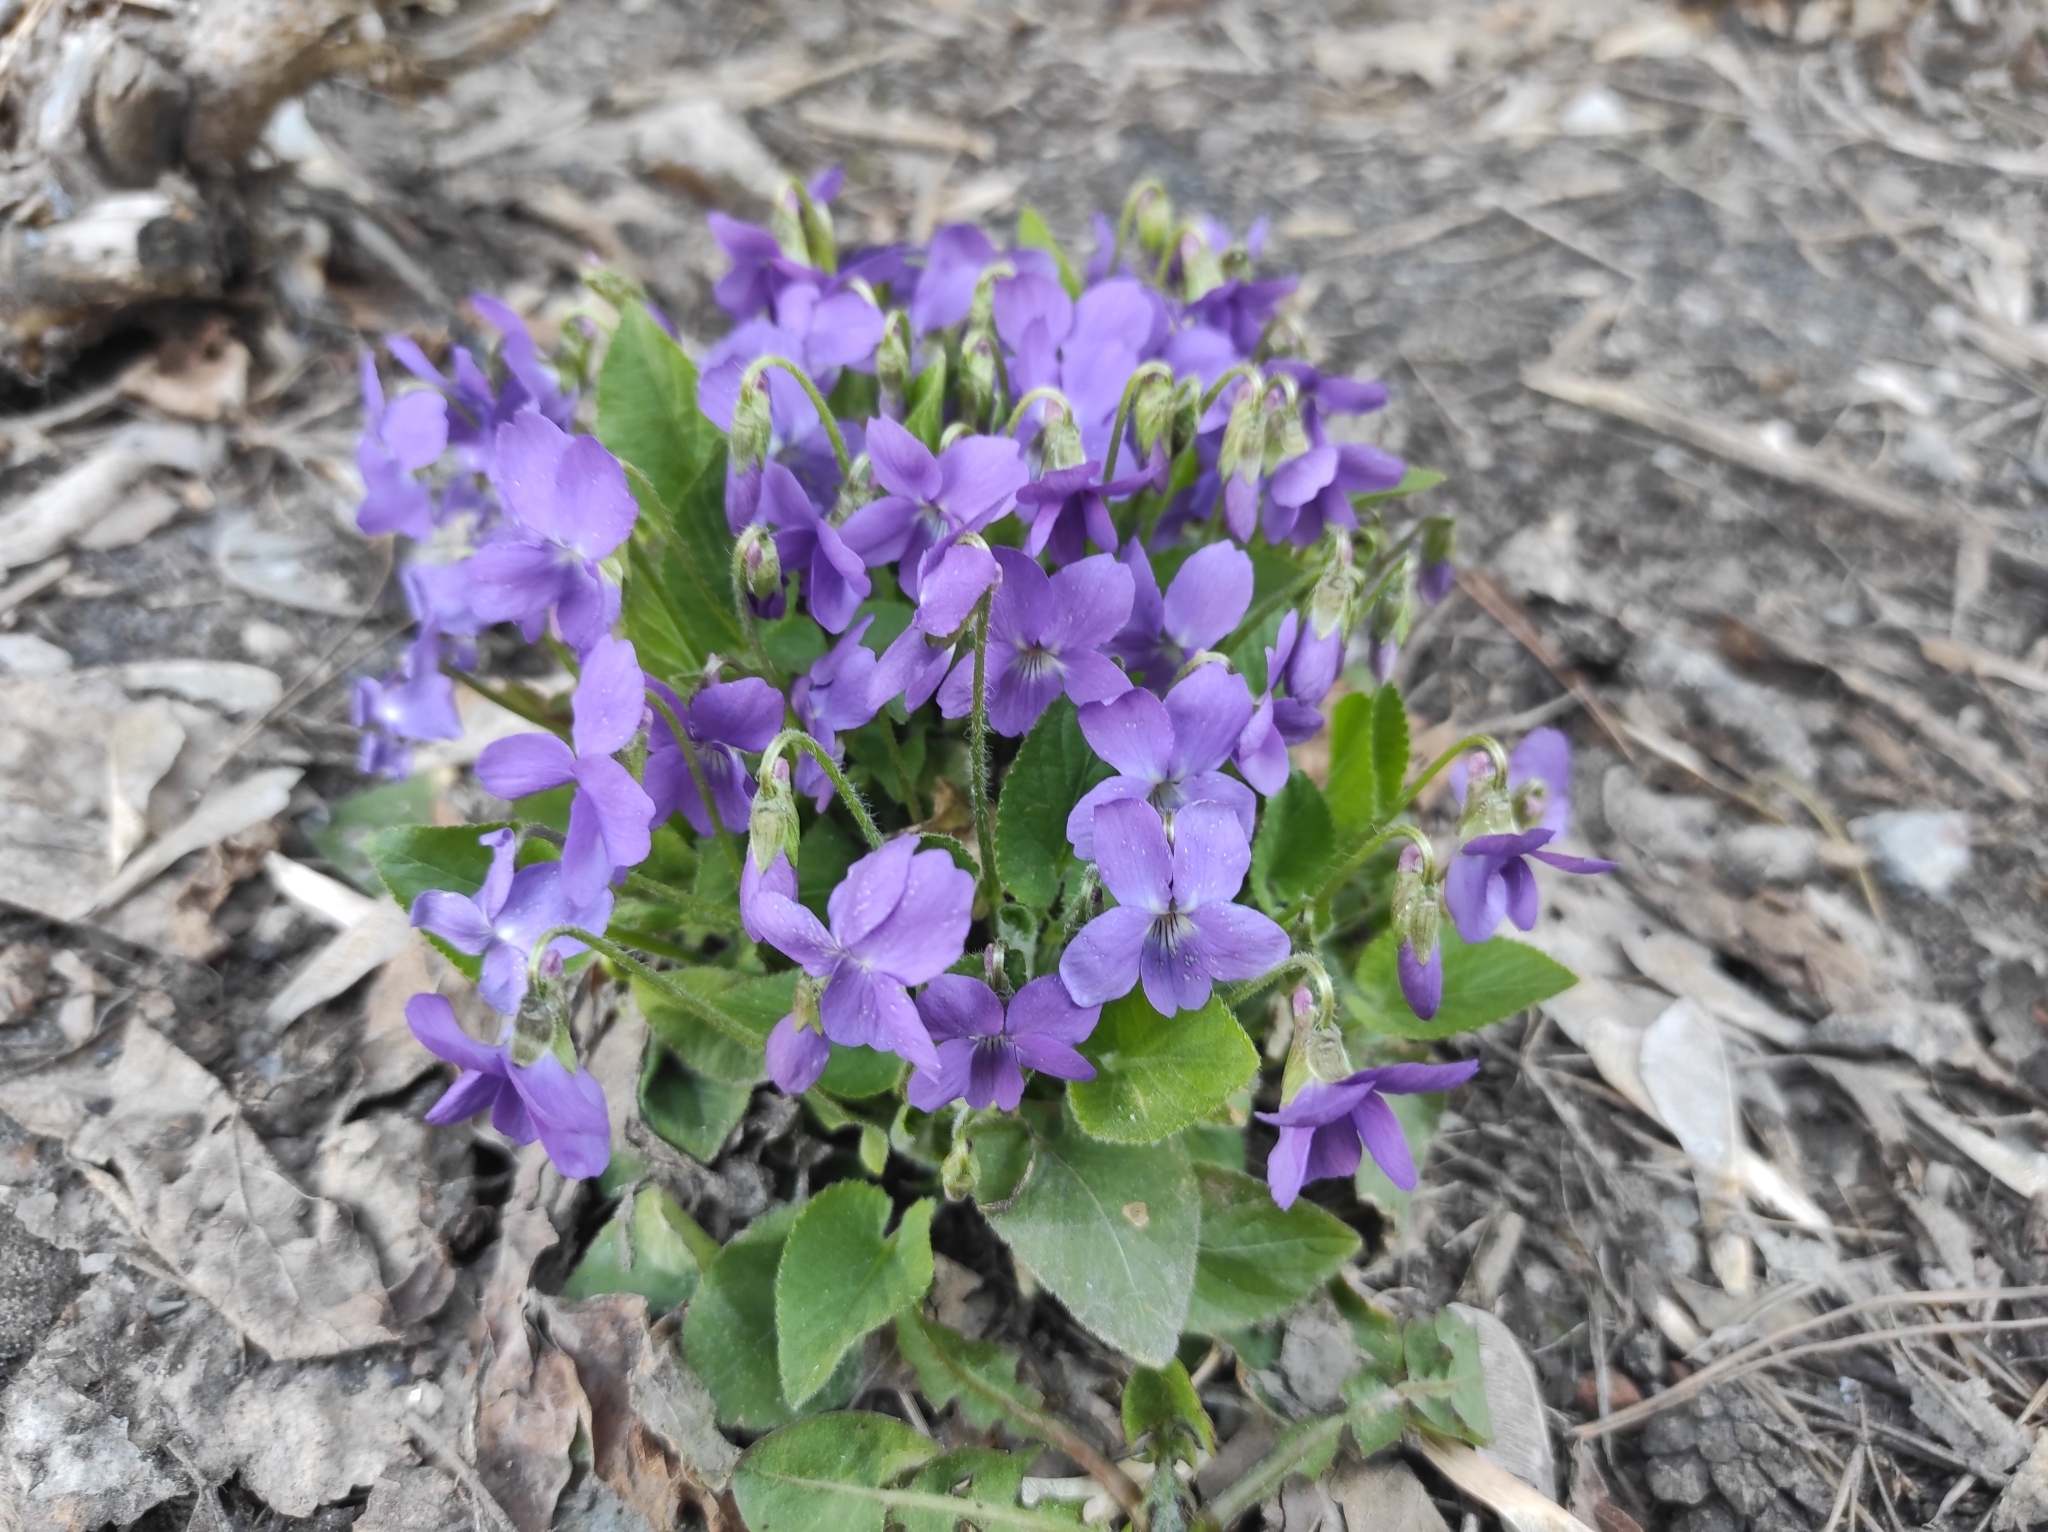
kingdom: Plantae
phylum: Tracheophyta
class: Magnoliopsida
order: Malpighiales
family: Violaceae
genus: Viola
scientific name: Viola hirta
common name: Hairy violet
